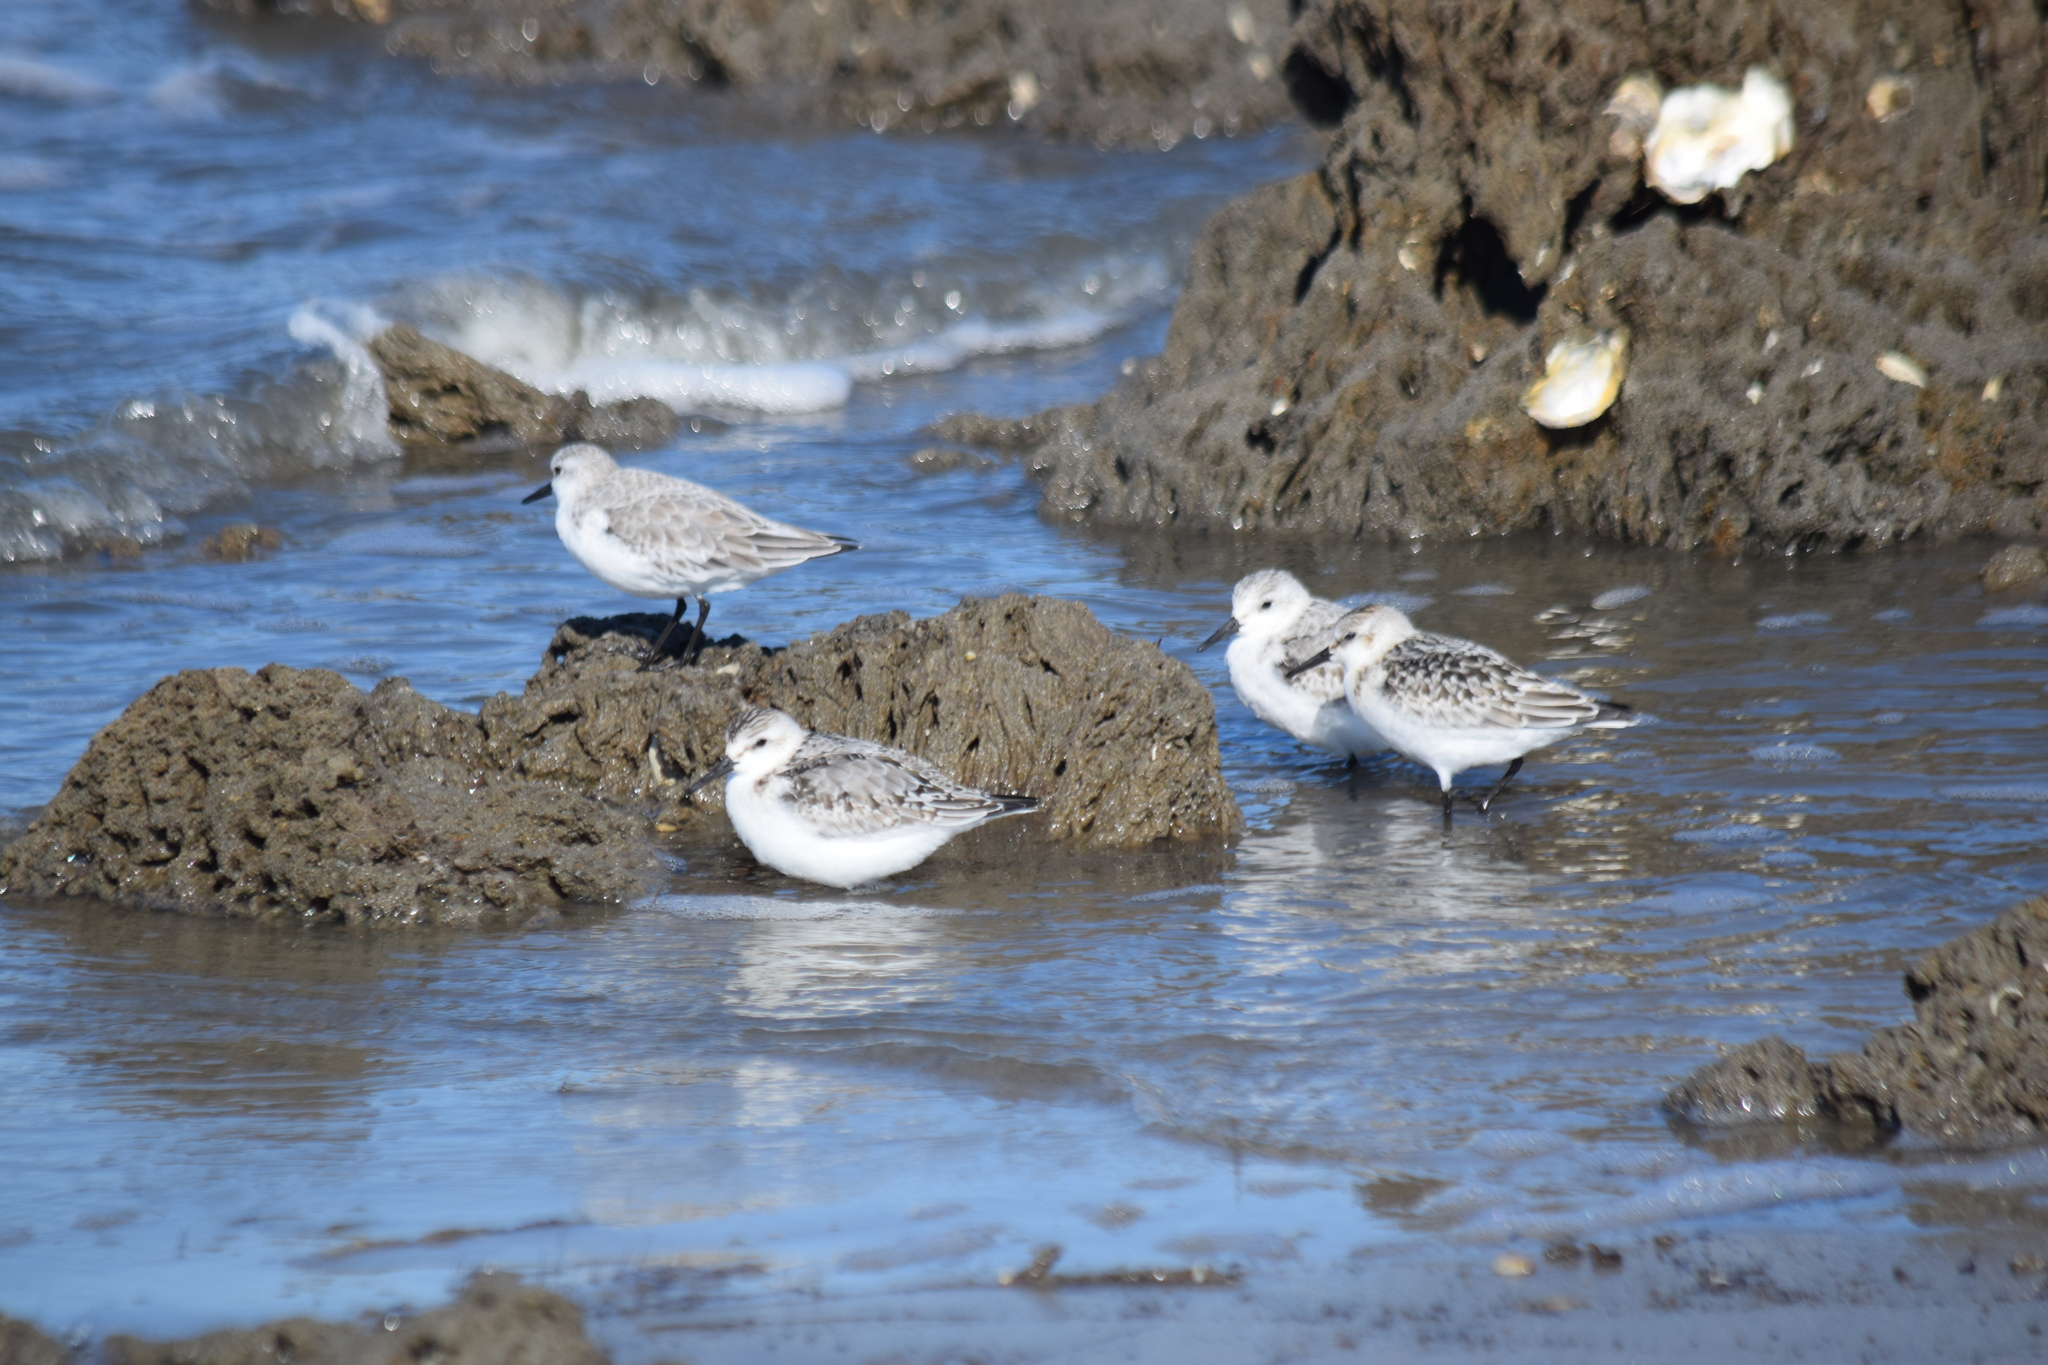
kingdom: Animalia
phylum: Chordata
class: Aves
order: Charadriiformes
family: Scolopacidae
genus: Calidris
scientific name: Calidris alba
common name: Sanderling
